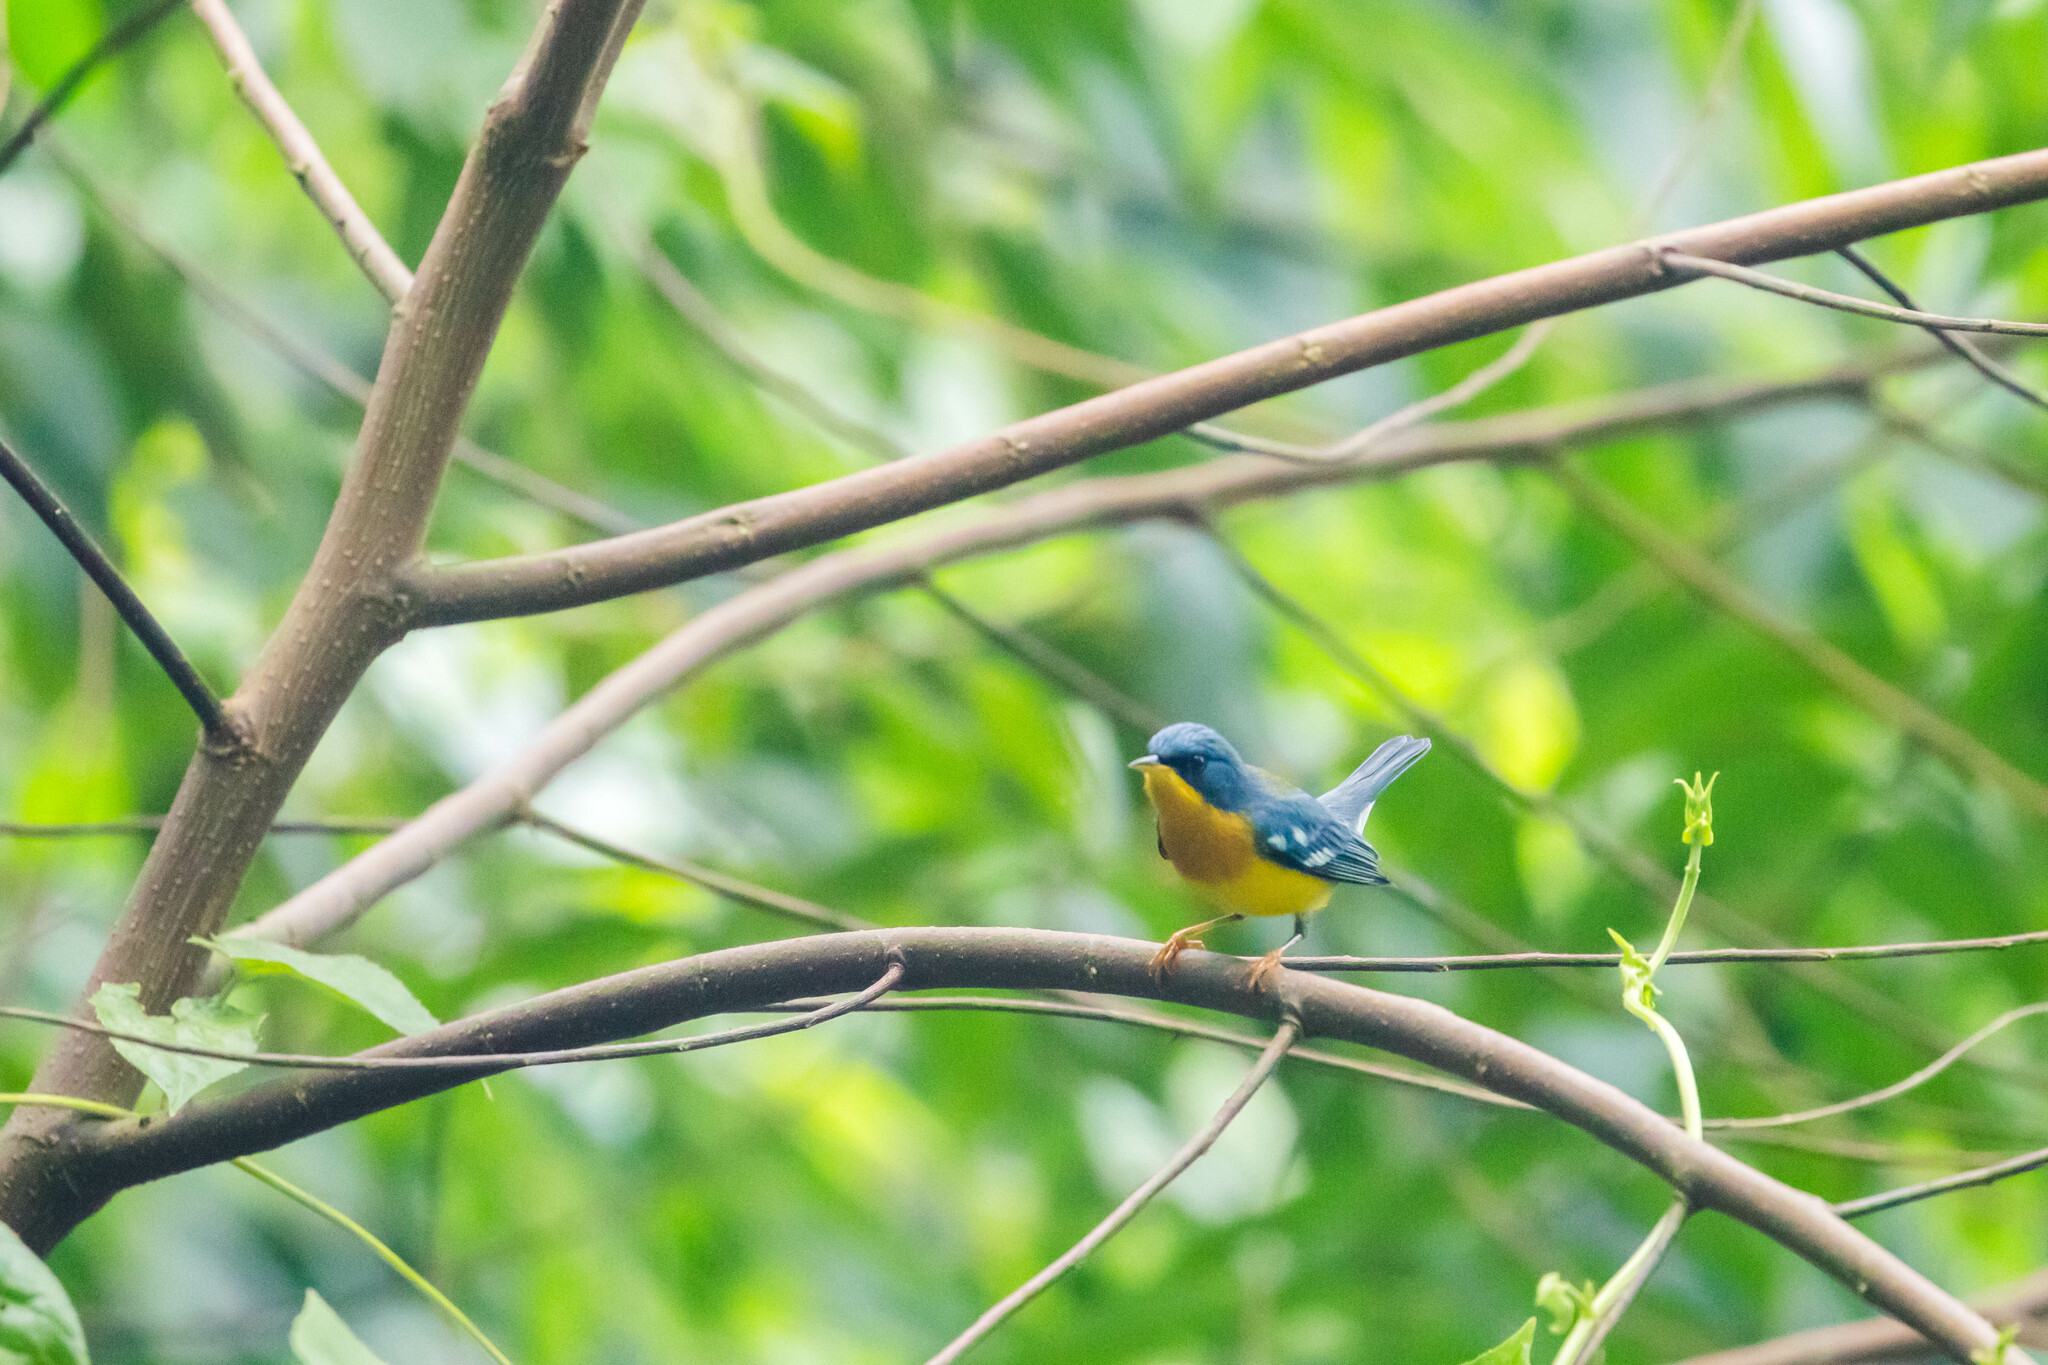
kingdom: Animalia
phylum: Chordata
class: Aves
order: Passeriformes
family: Parulidae
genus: Setophaga
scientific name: Setophaga pitiayumi
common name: Tropical parula
